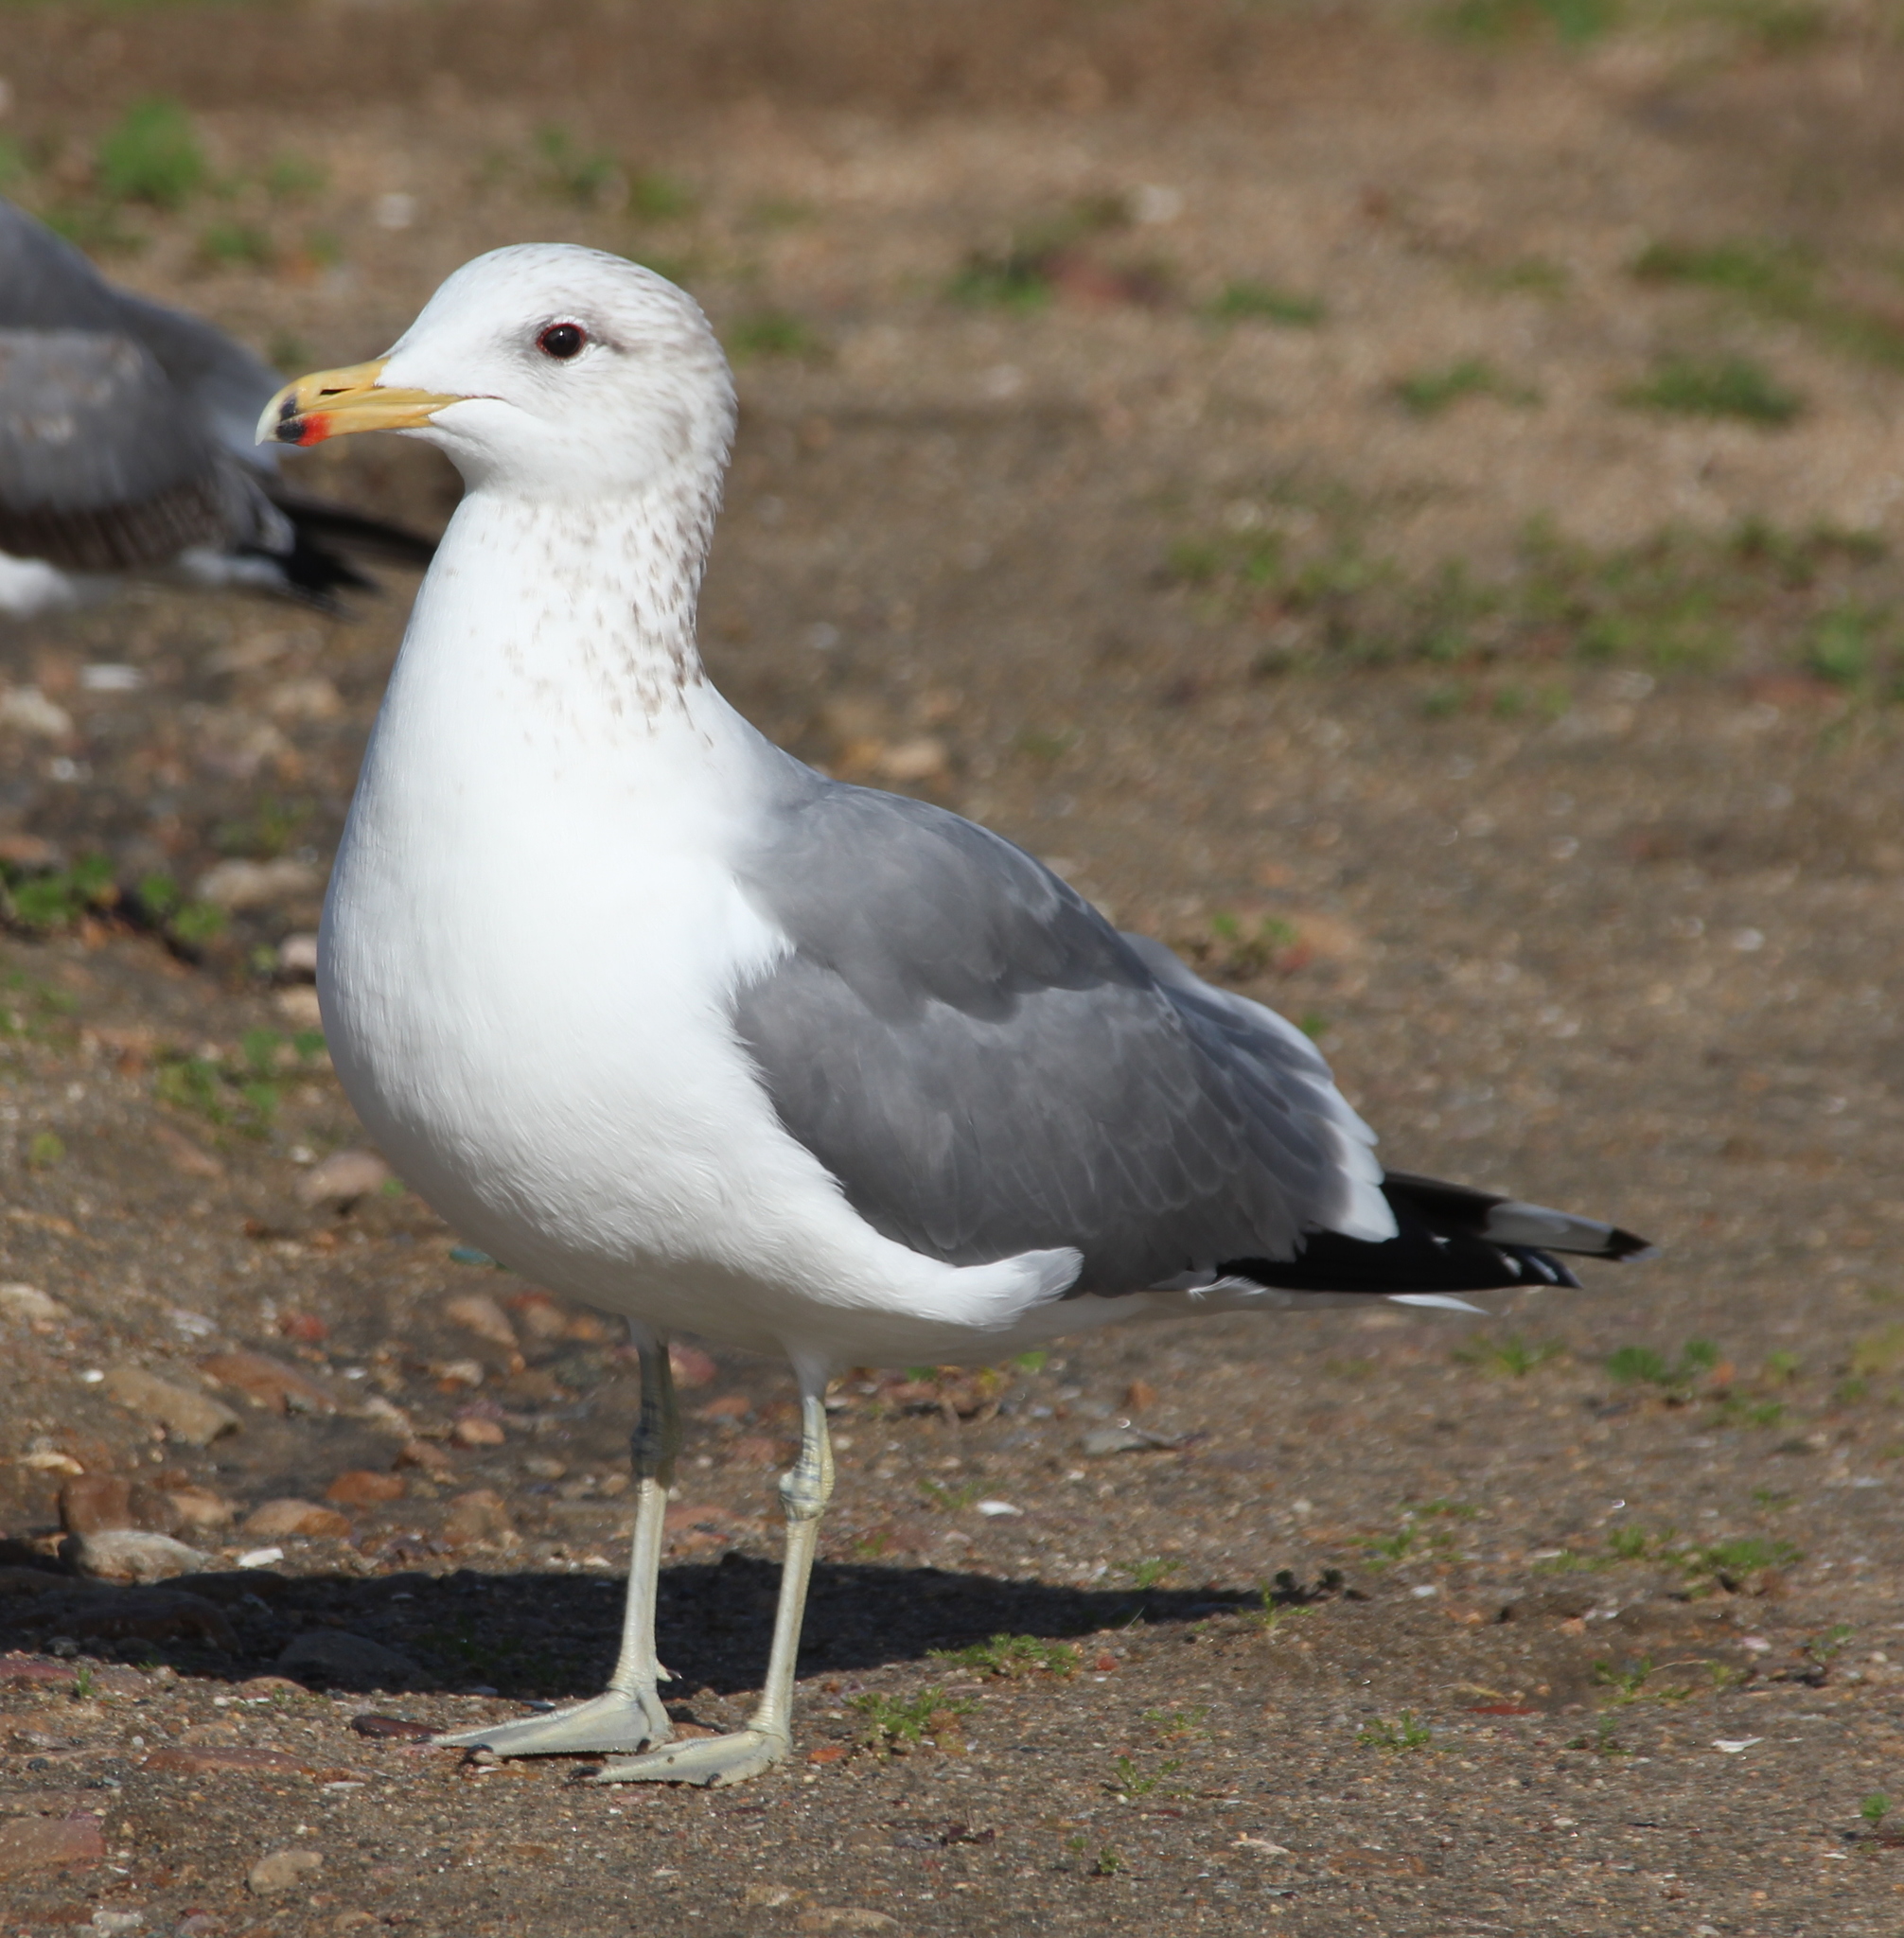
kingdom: Animalia
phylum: Chordata
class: Aves
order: Charadriiformes
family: Laridae
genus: Larus
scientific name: Larus californicus
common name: California gull
